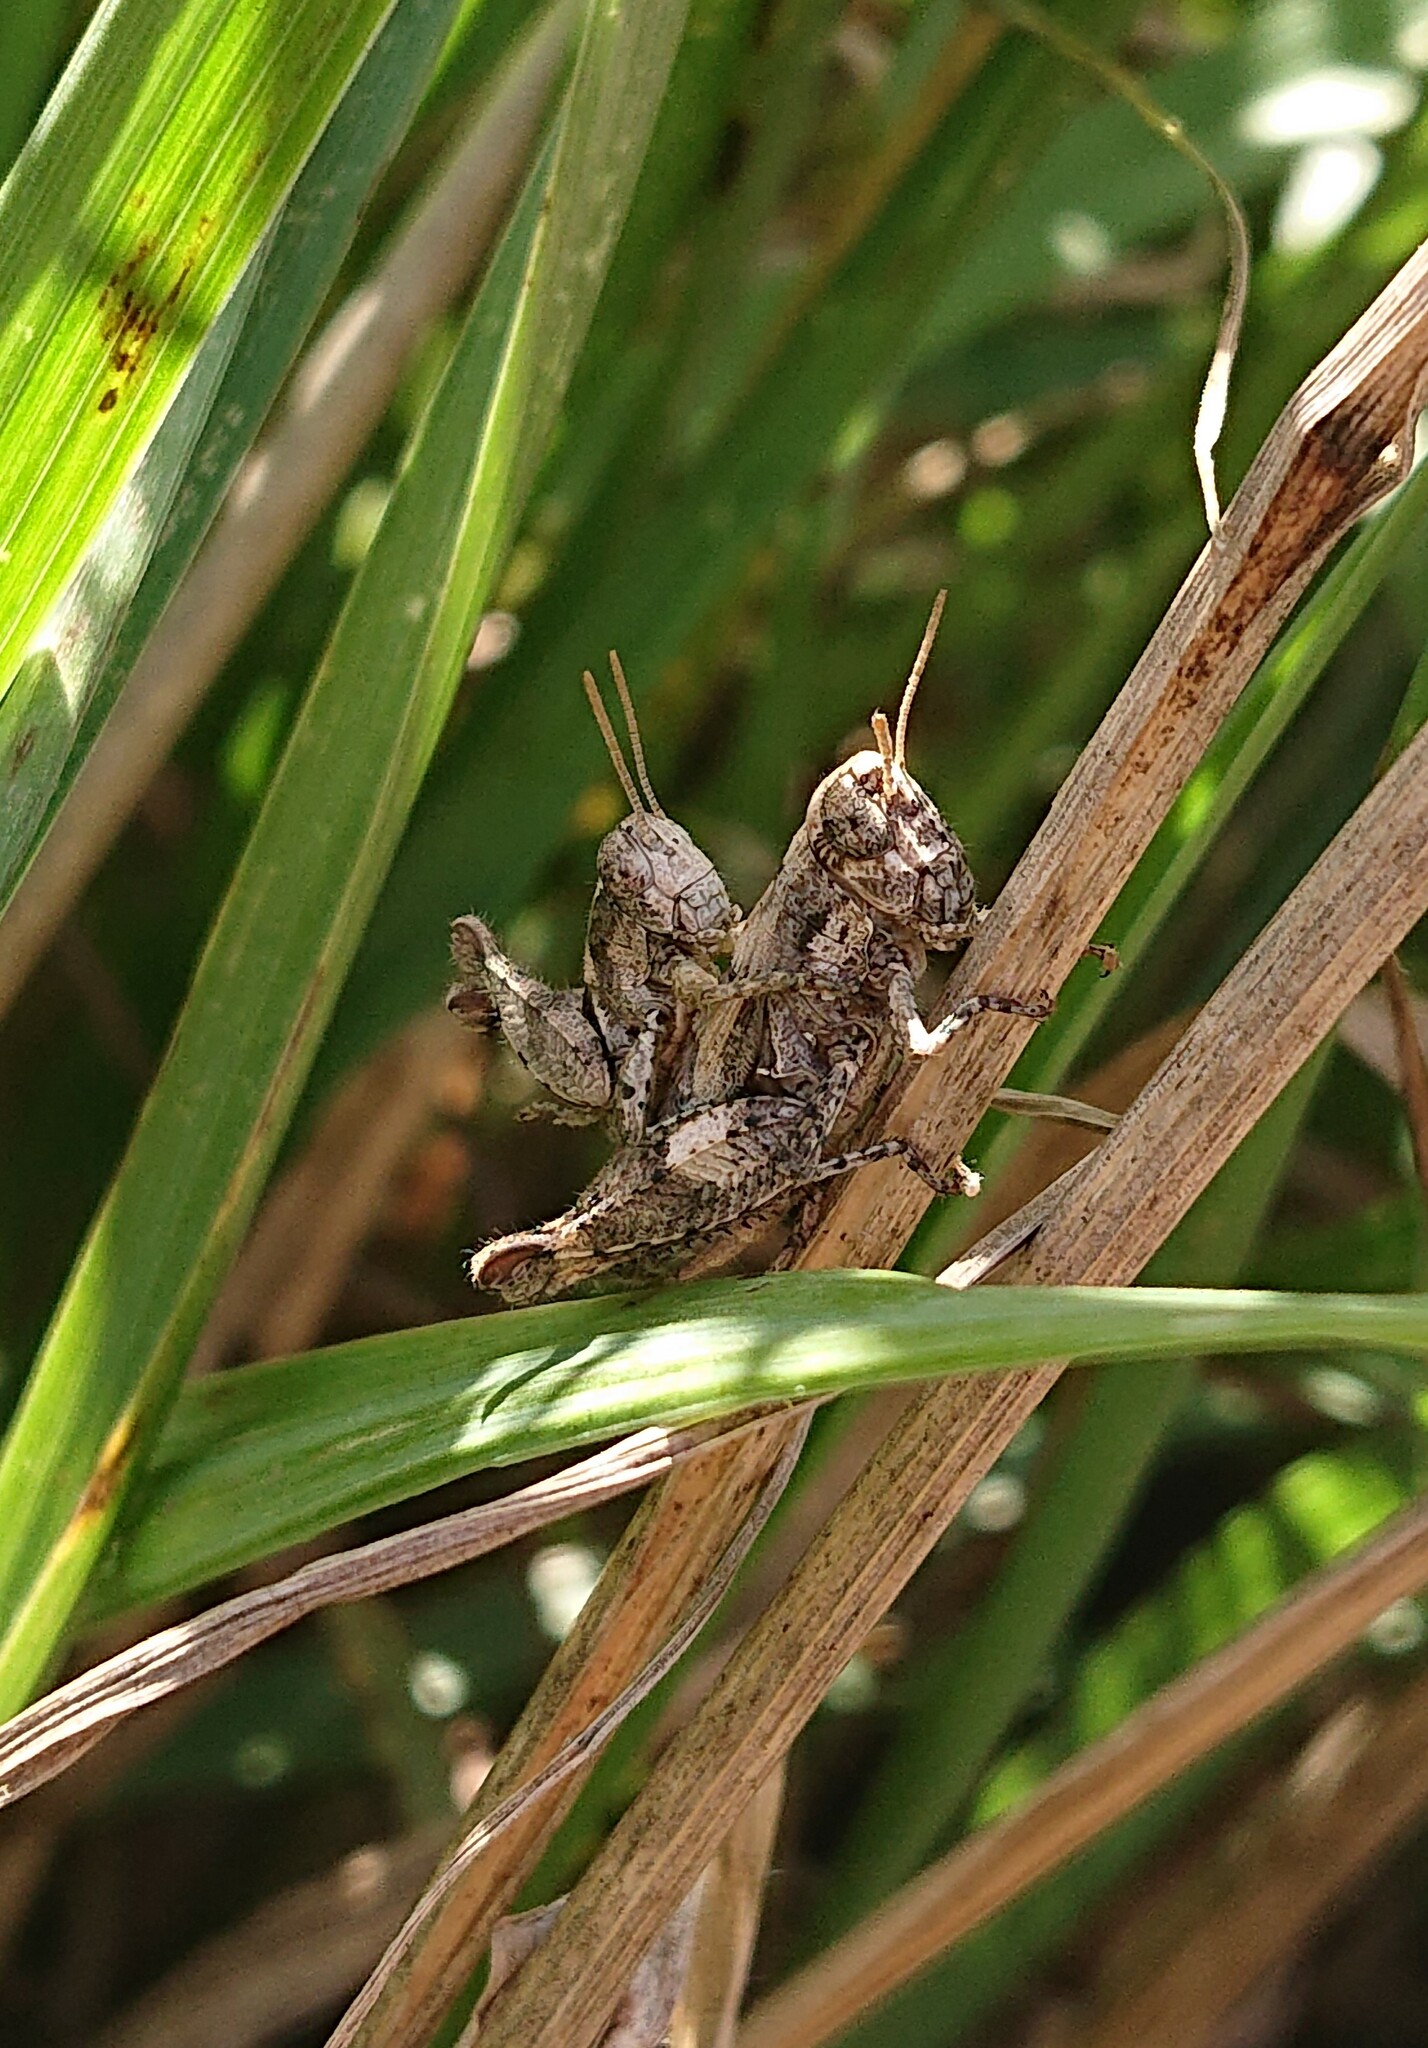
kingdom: Animalia
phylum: Arthropoda
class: Insecta
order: Orthoptera
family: Acrididae
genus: Pezotettix
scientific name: Pezotettix giornae
